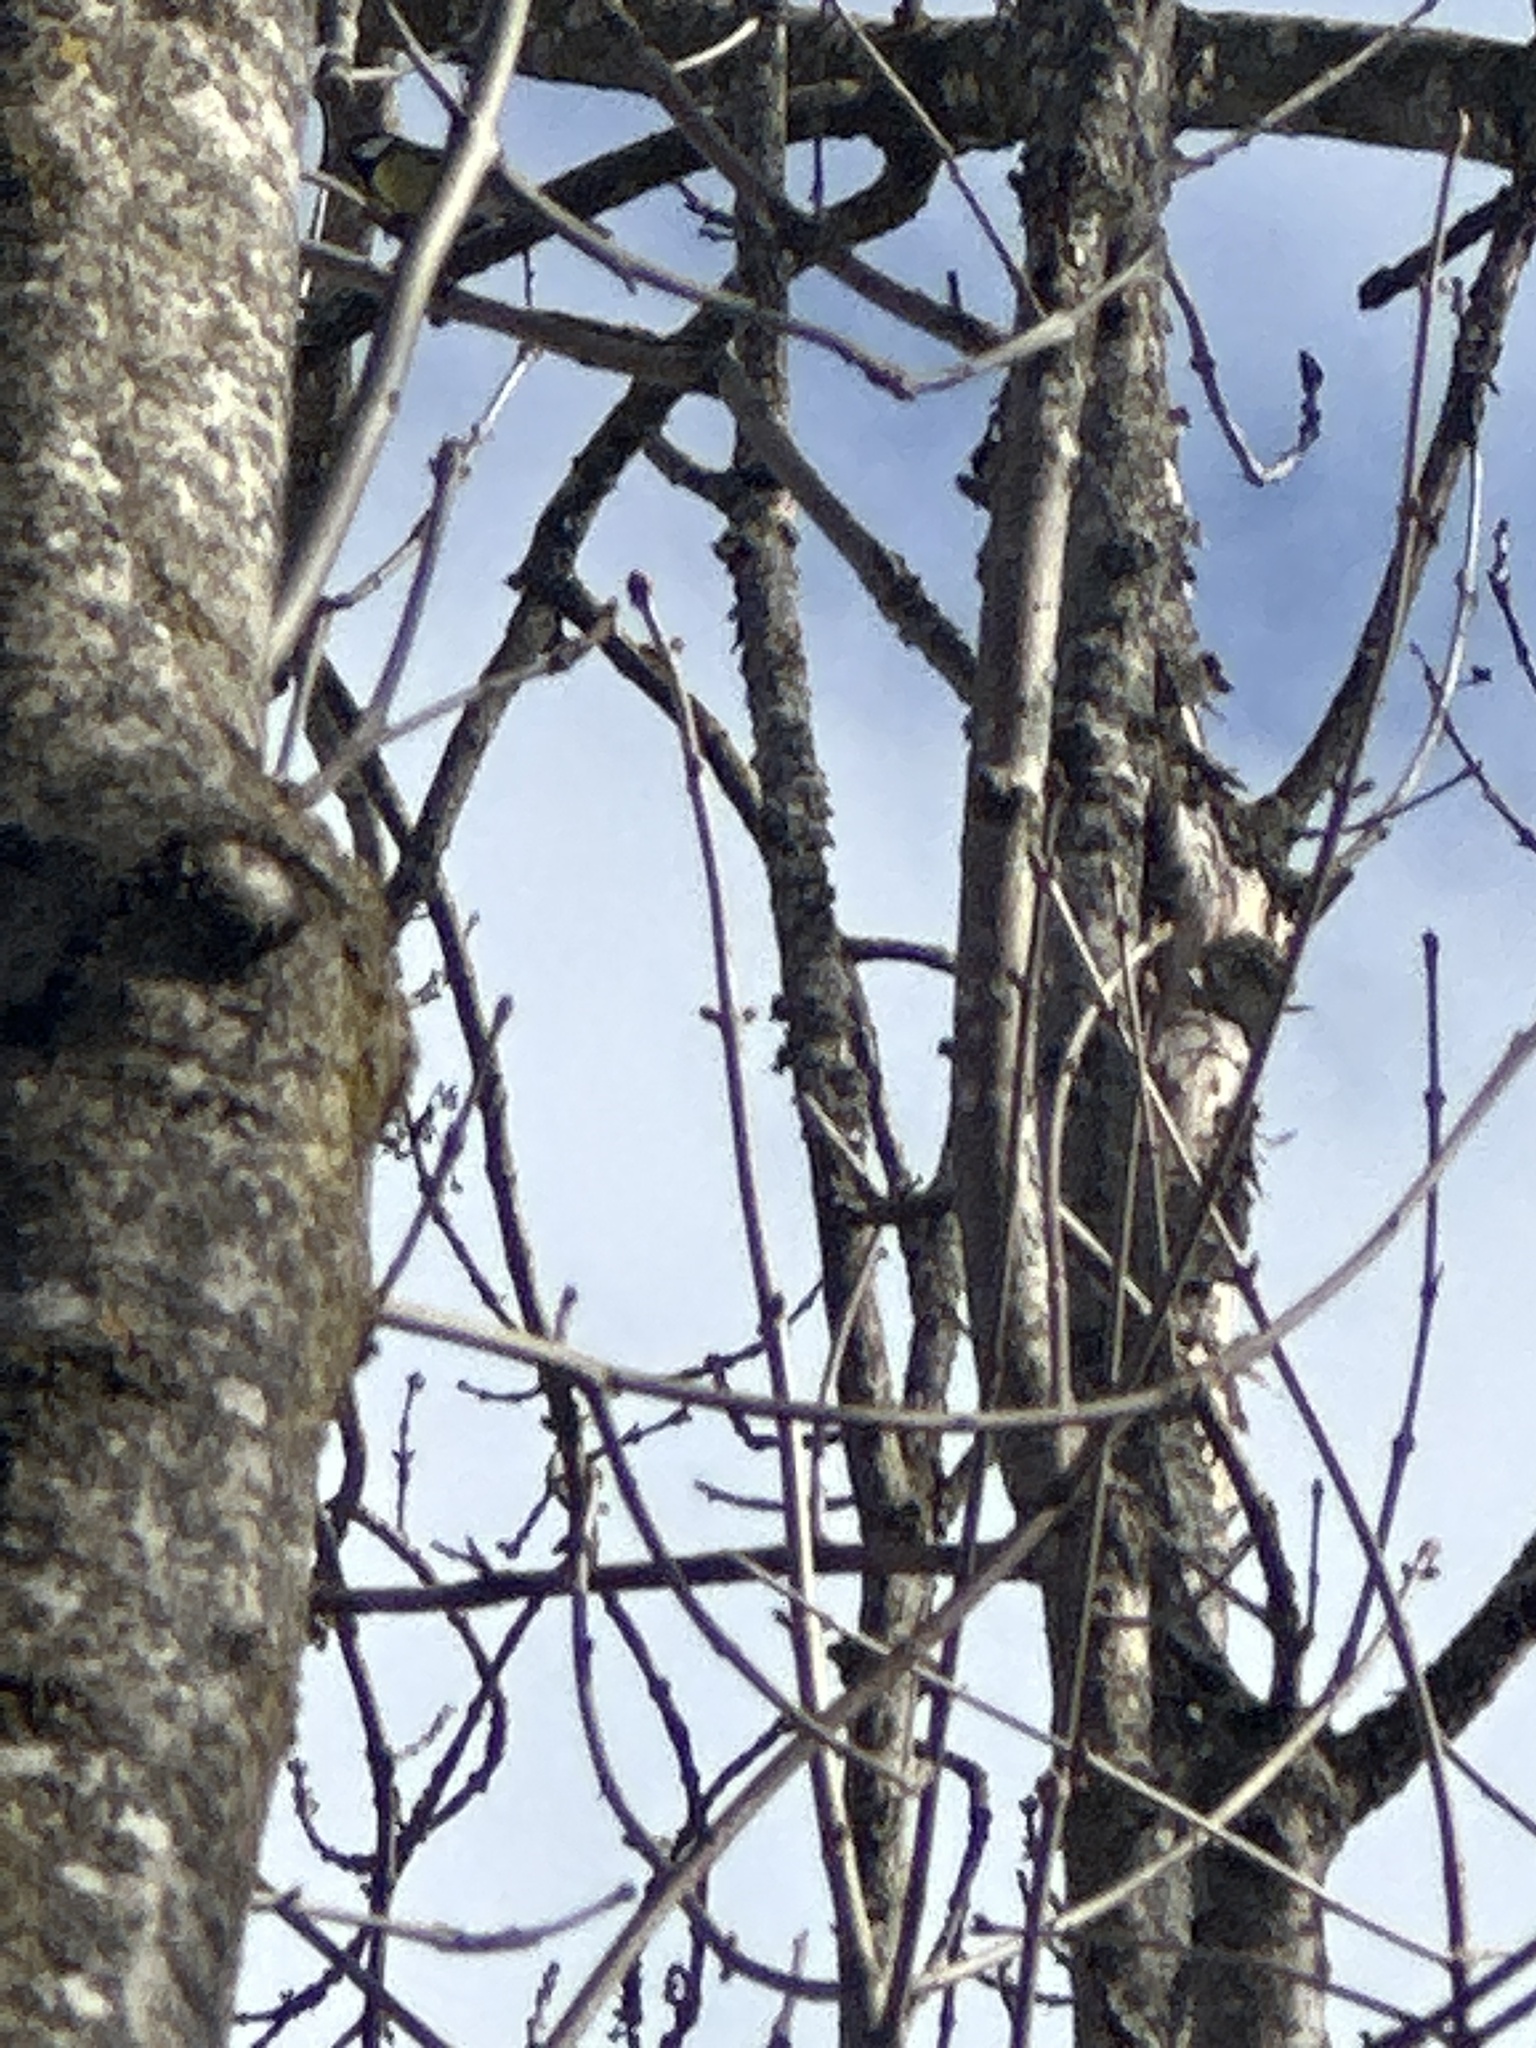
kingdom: Animalia
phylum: Chordata
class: Aves
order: Passeriformes
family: Paridae
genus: Parus
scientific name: Parus major
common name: Great tit
